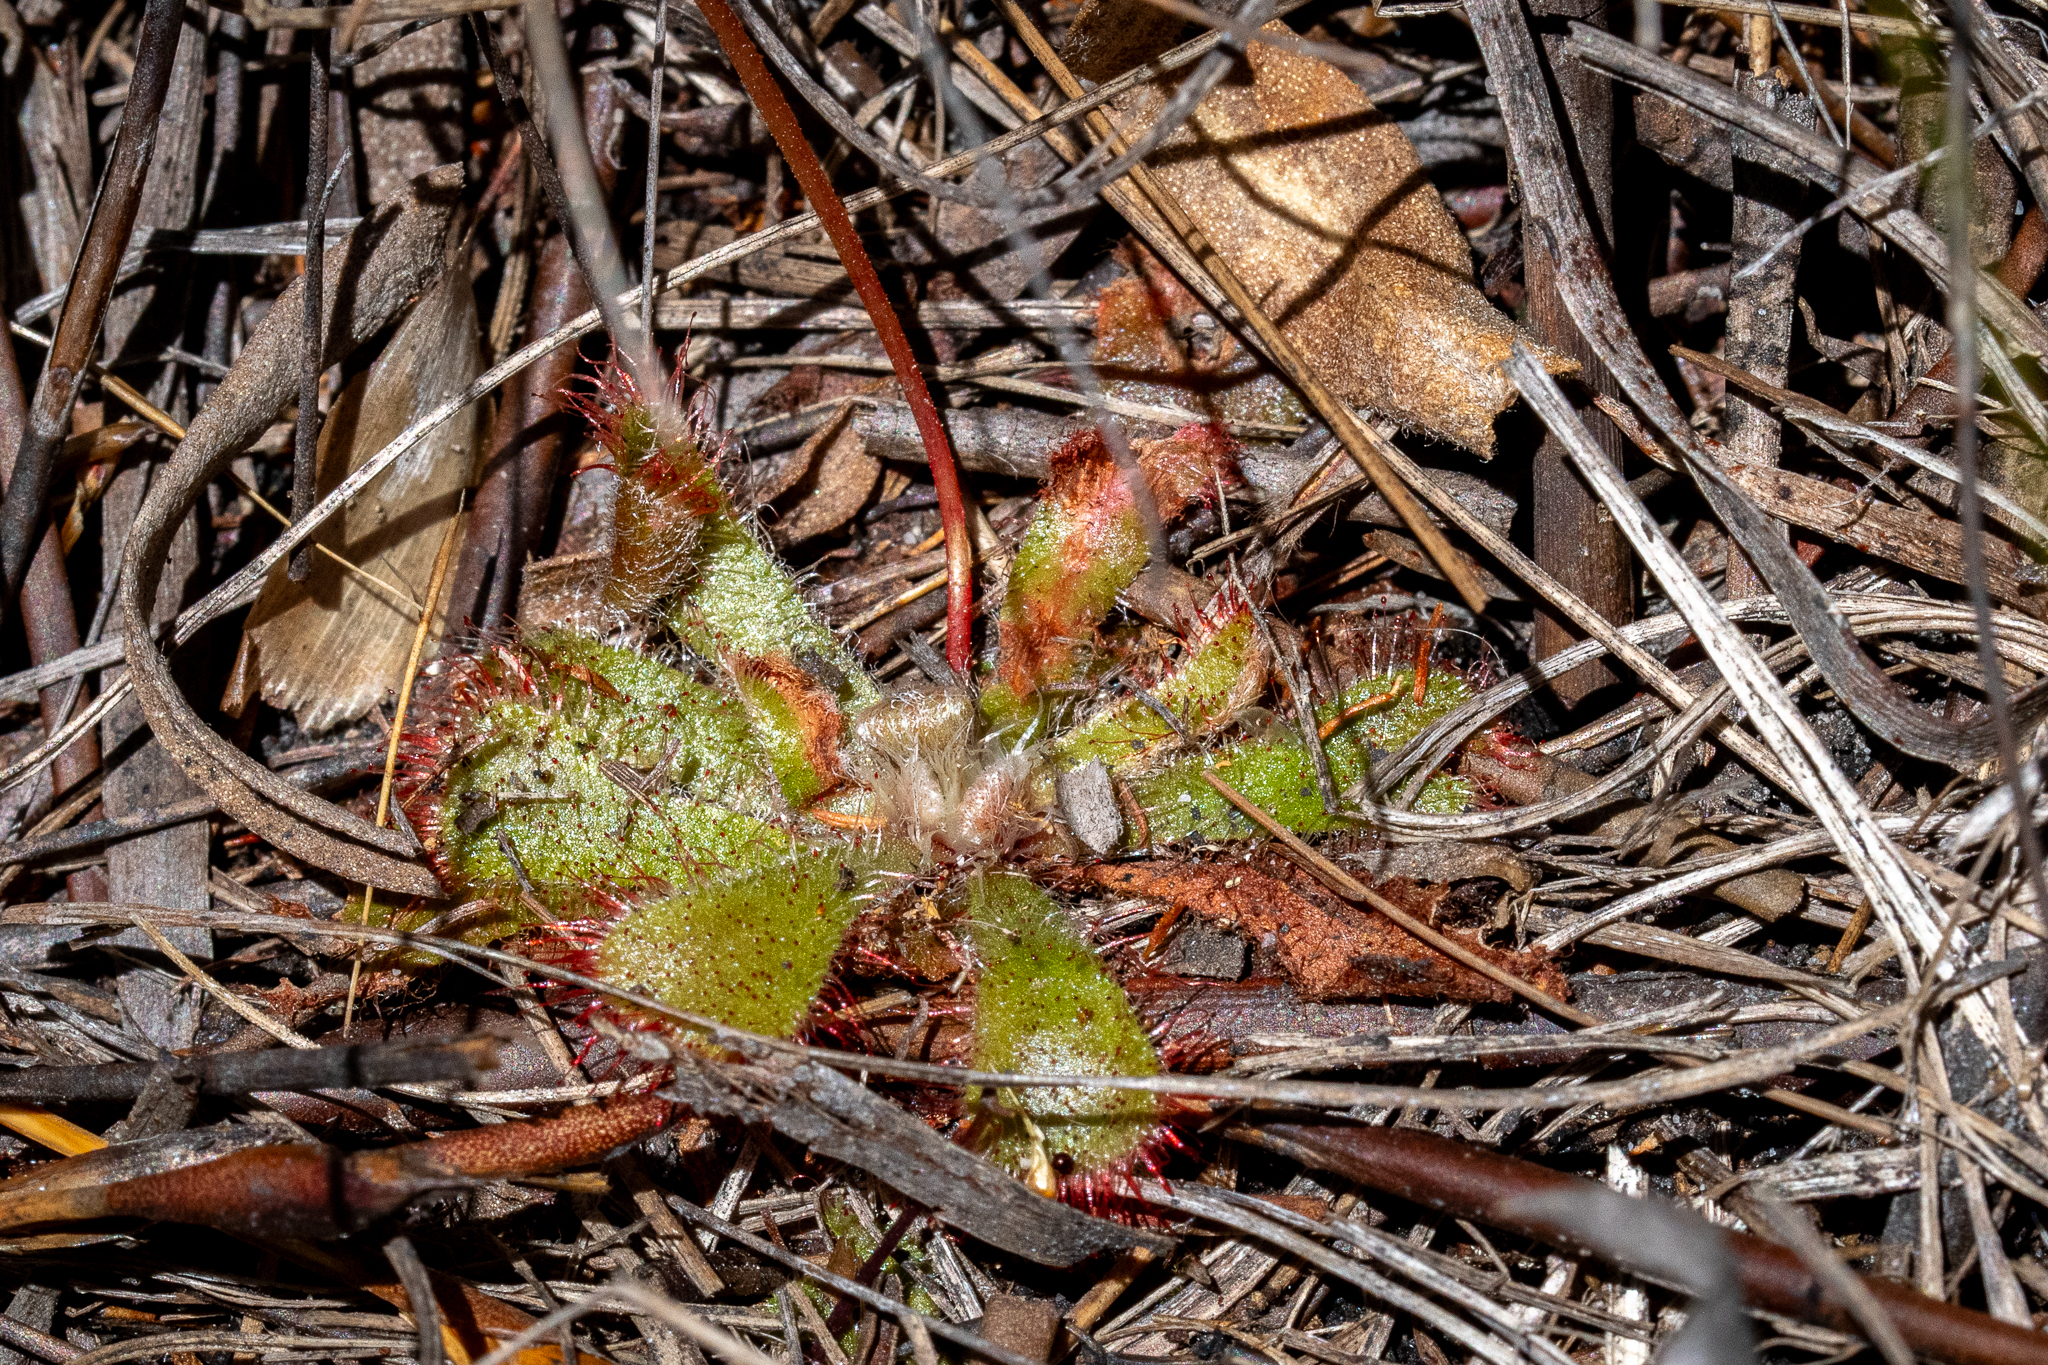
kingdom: Plantae
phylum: Tracheophyta
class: Magnoliopsida
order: Caryophyllales
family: Droseraceae
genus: Drosera
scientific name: Drosera aliciae
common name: Alice sundew
